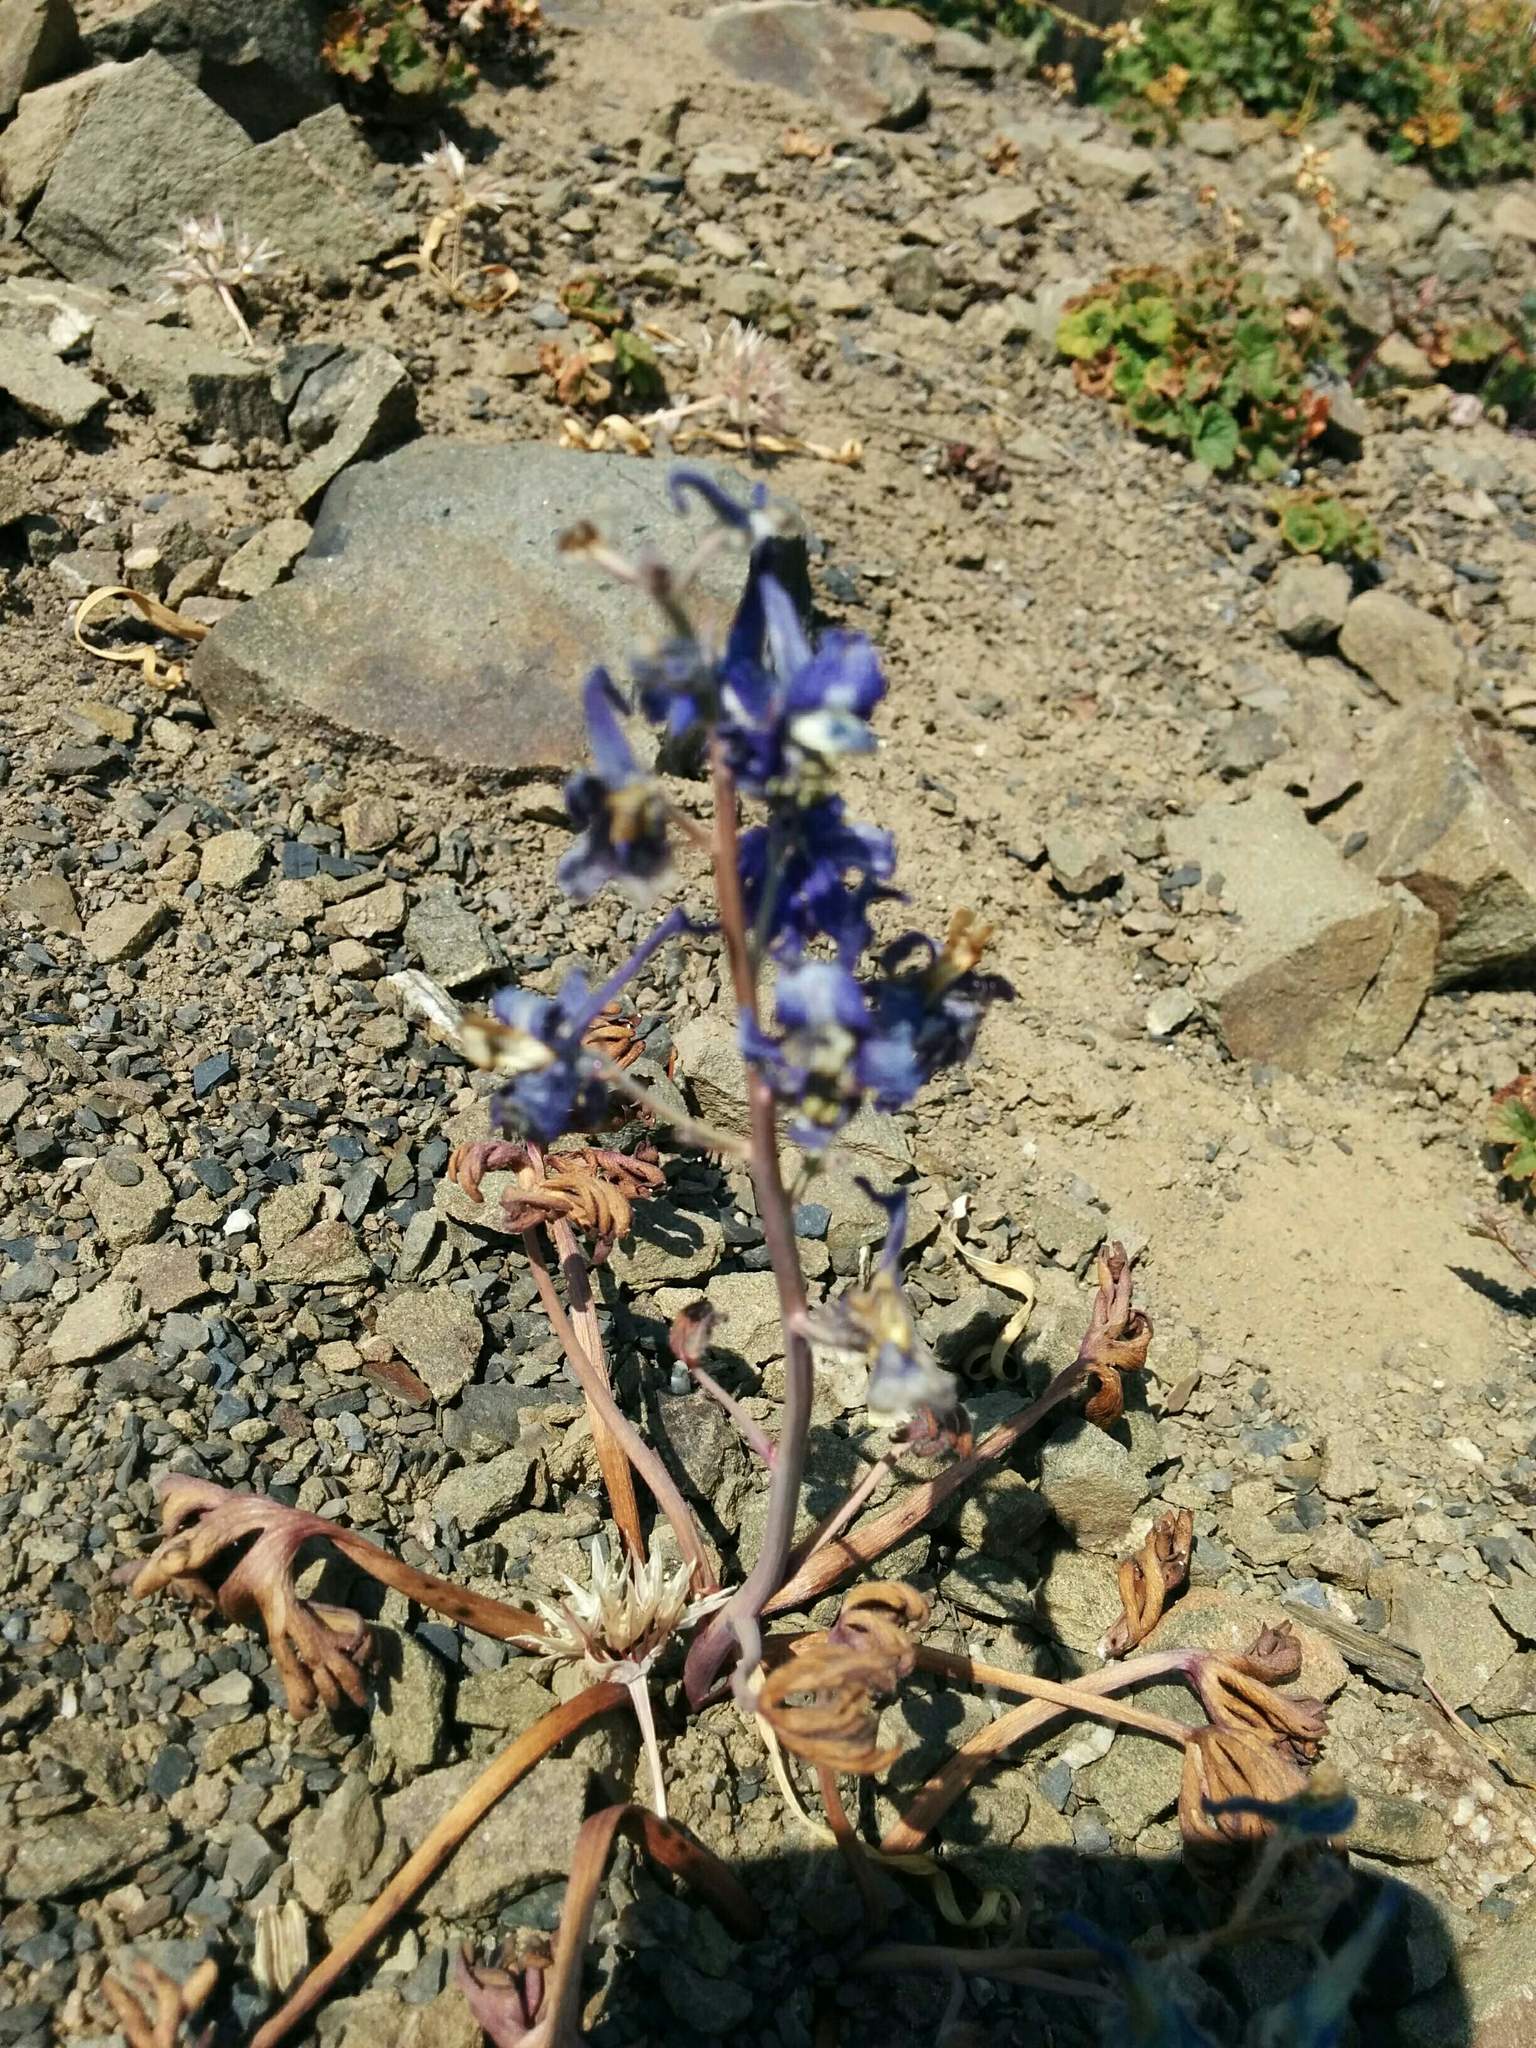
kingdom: Plantae
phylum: Tracheophyta
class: Magnoliopsida
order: Ranunculales
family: Ranunculaceae
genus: Delphinium
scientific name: Delphinium glareosum
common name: Olympic mountain larkspur
